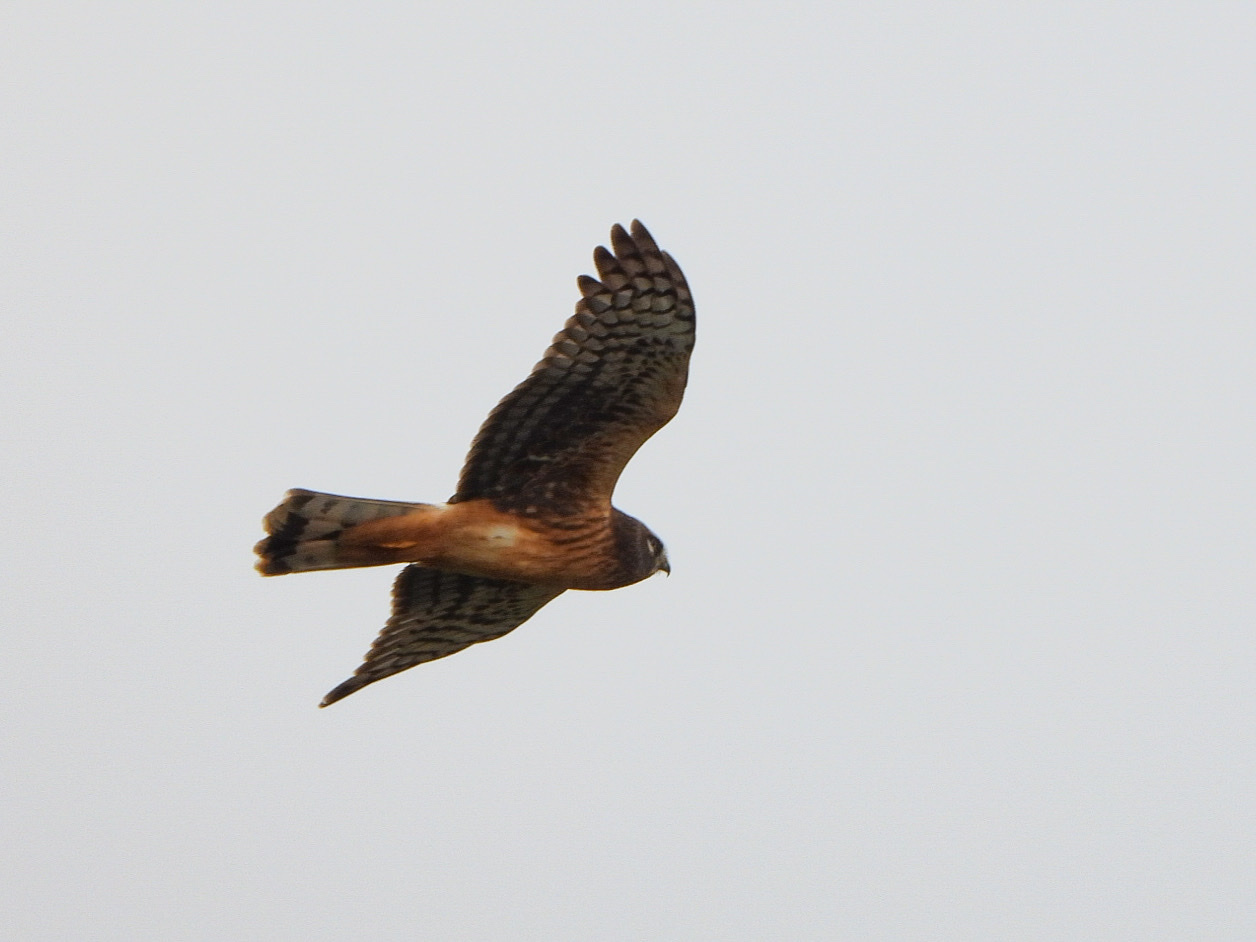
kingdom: Animalia
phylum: Chordata
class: Aves
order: Accipitriformes
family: Accipitridae
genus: Circus
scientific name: Circus cyaneus
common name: Hen harrier
